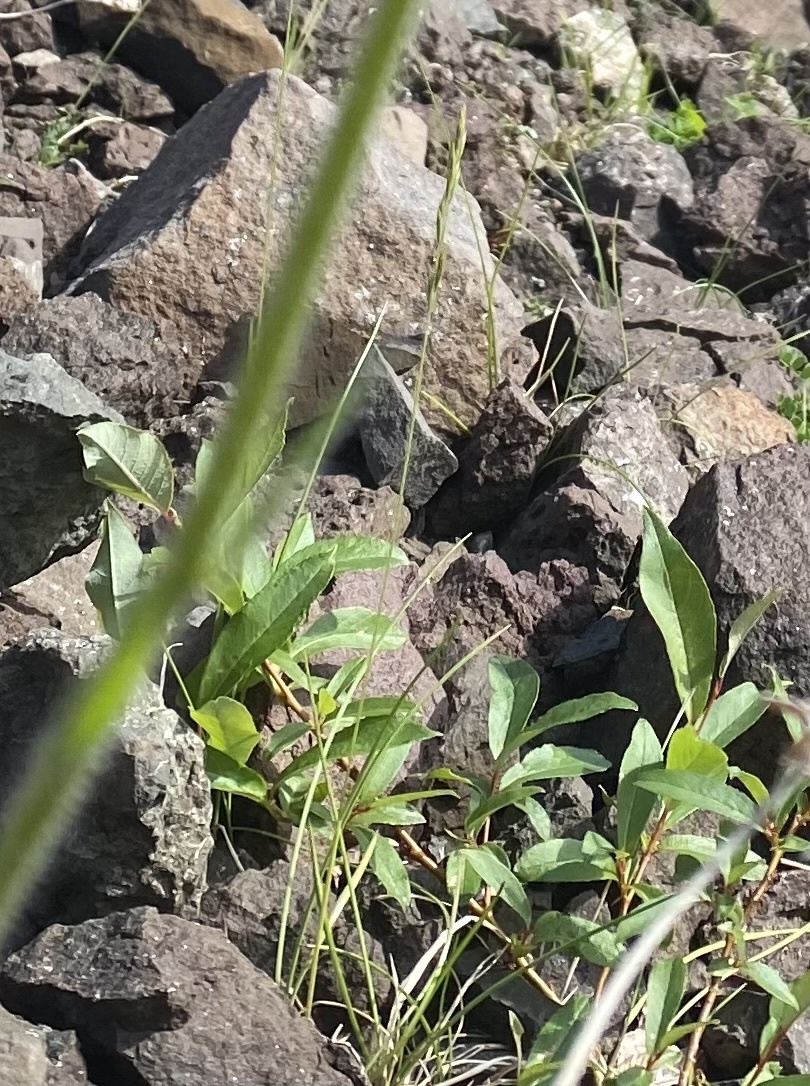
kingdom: Plantae
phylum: Tracheophyta
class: Liliopsida
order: Poales
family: Poaceae
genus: Festuca
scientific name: Festuca
